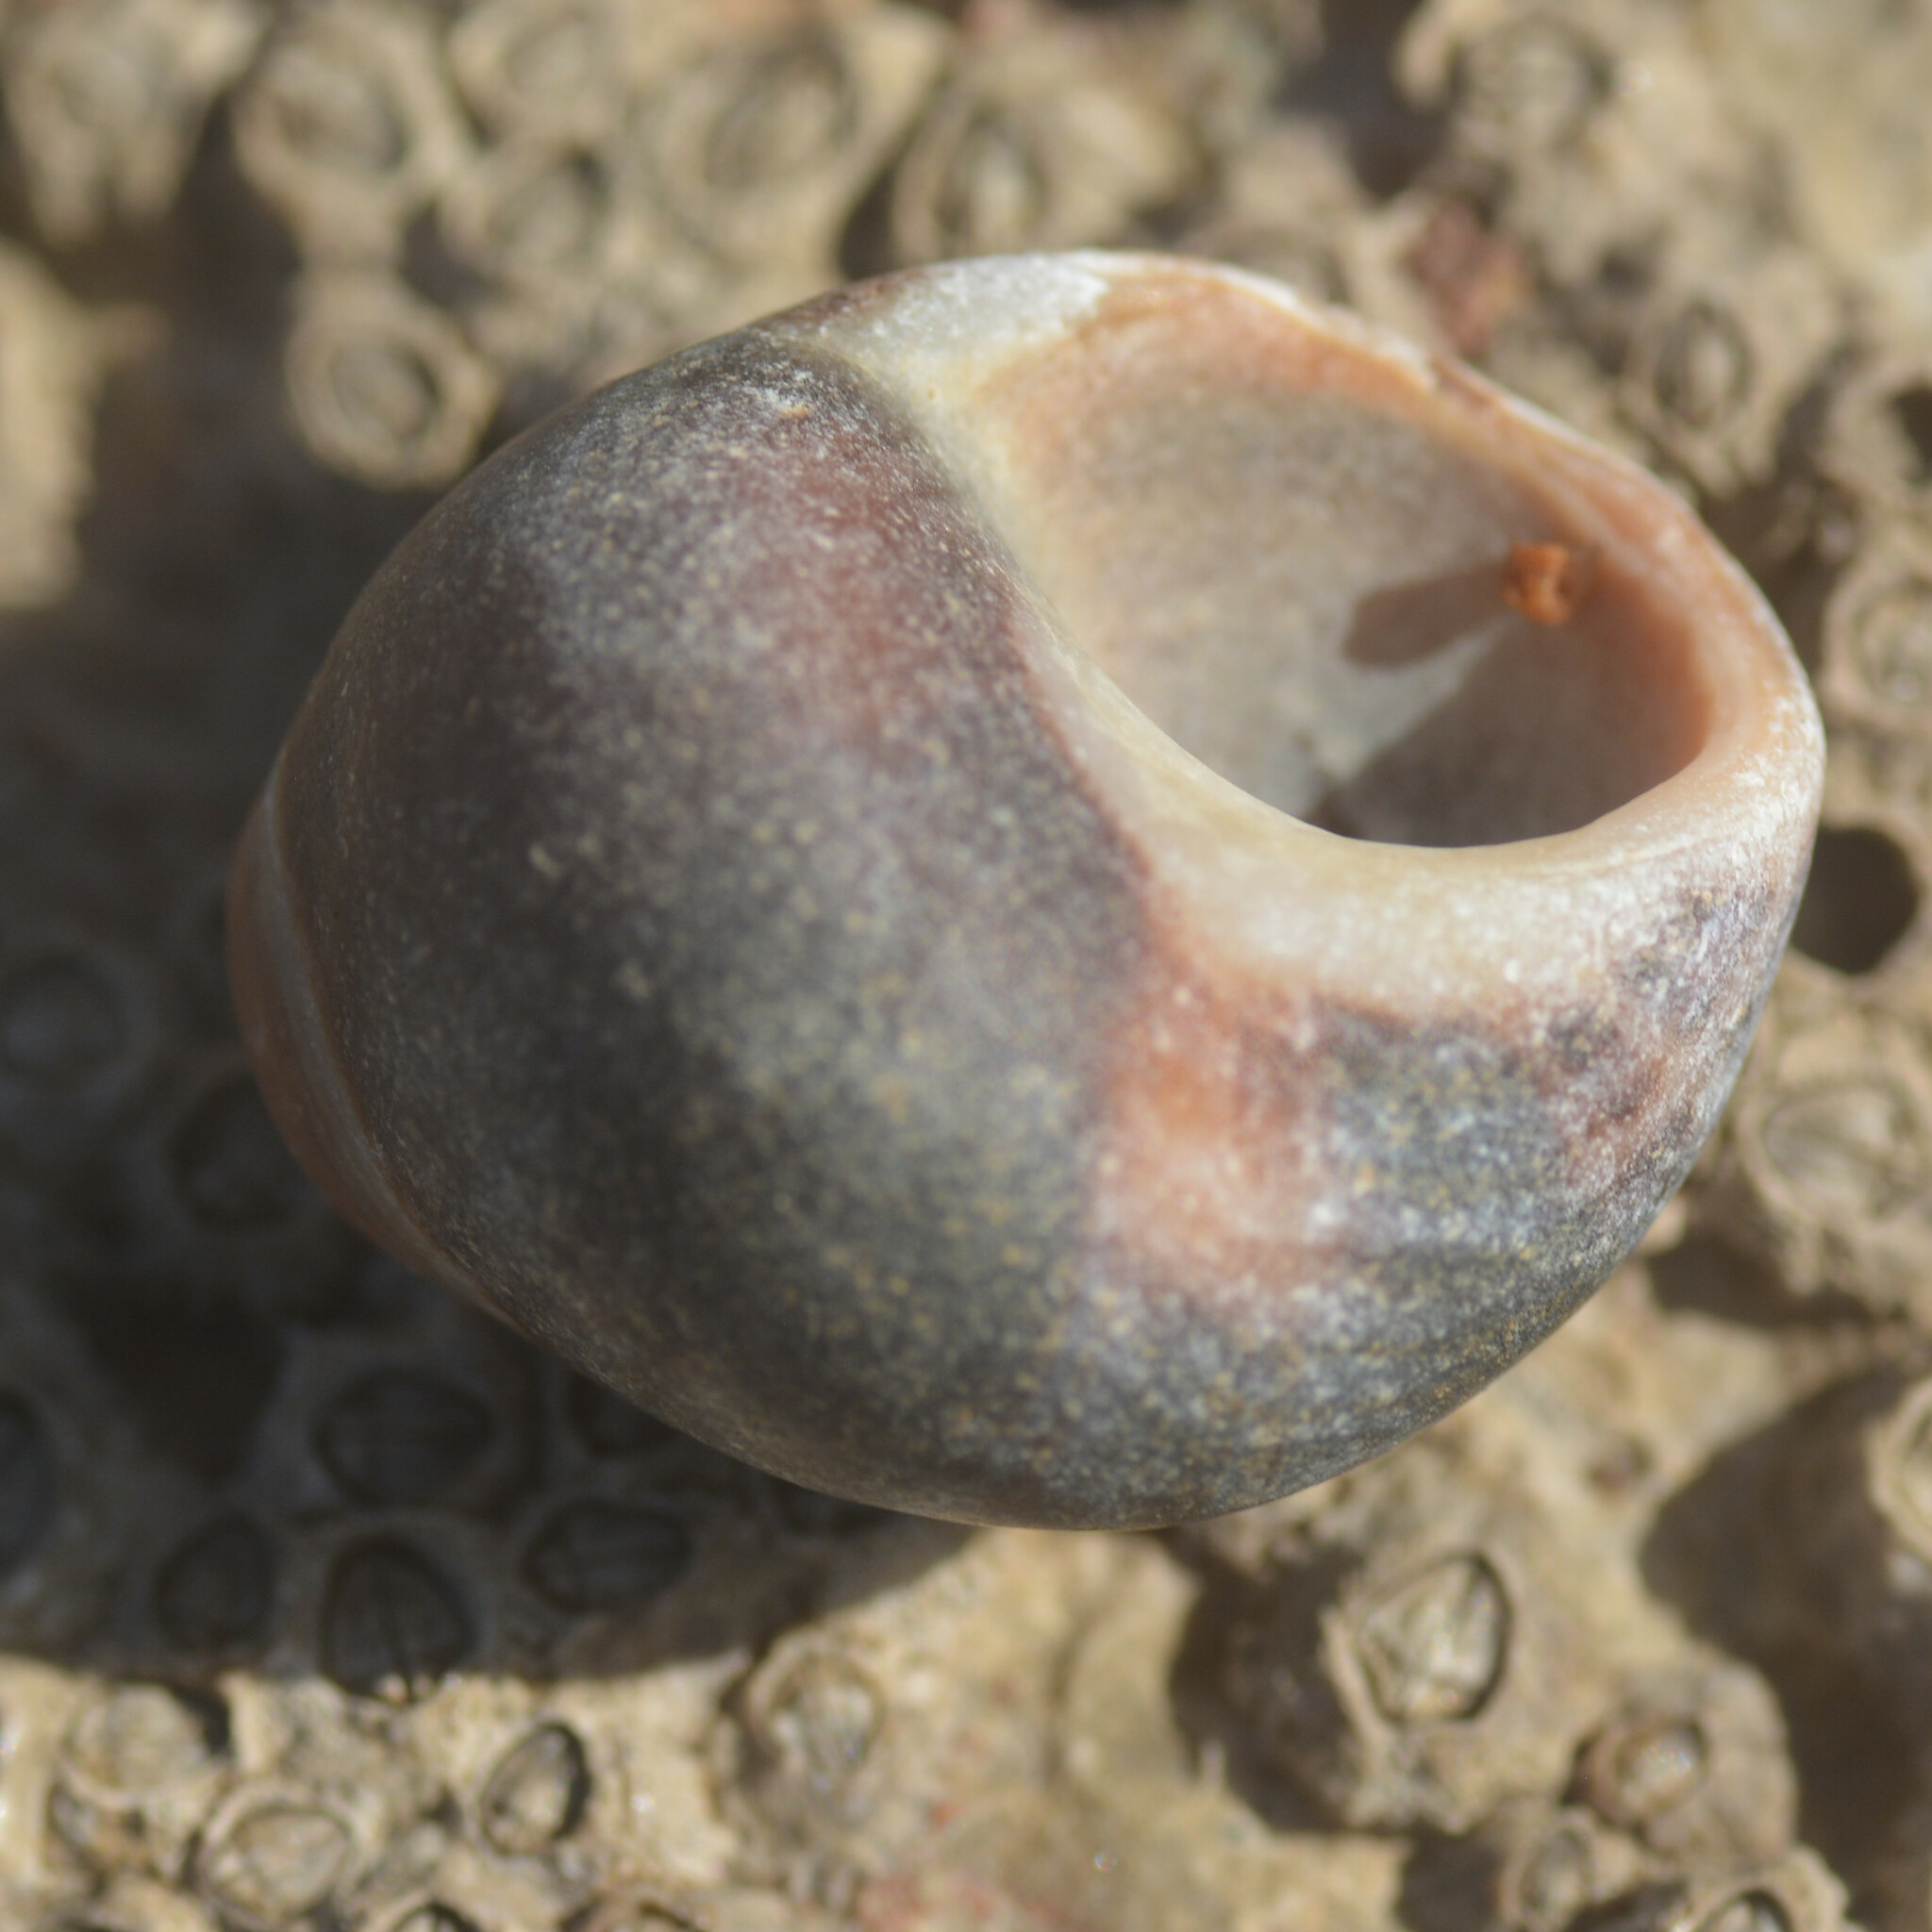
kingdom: Animalia
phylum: Mollusca
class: Gastropoda
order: Littorinimorpha
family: Littorinidae
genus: Littorina
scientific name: Littorina littorea
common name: Common periwinkle
